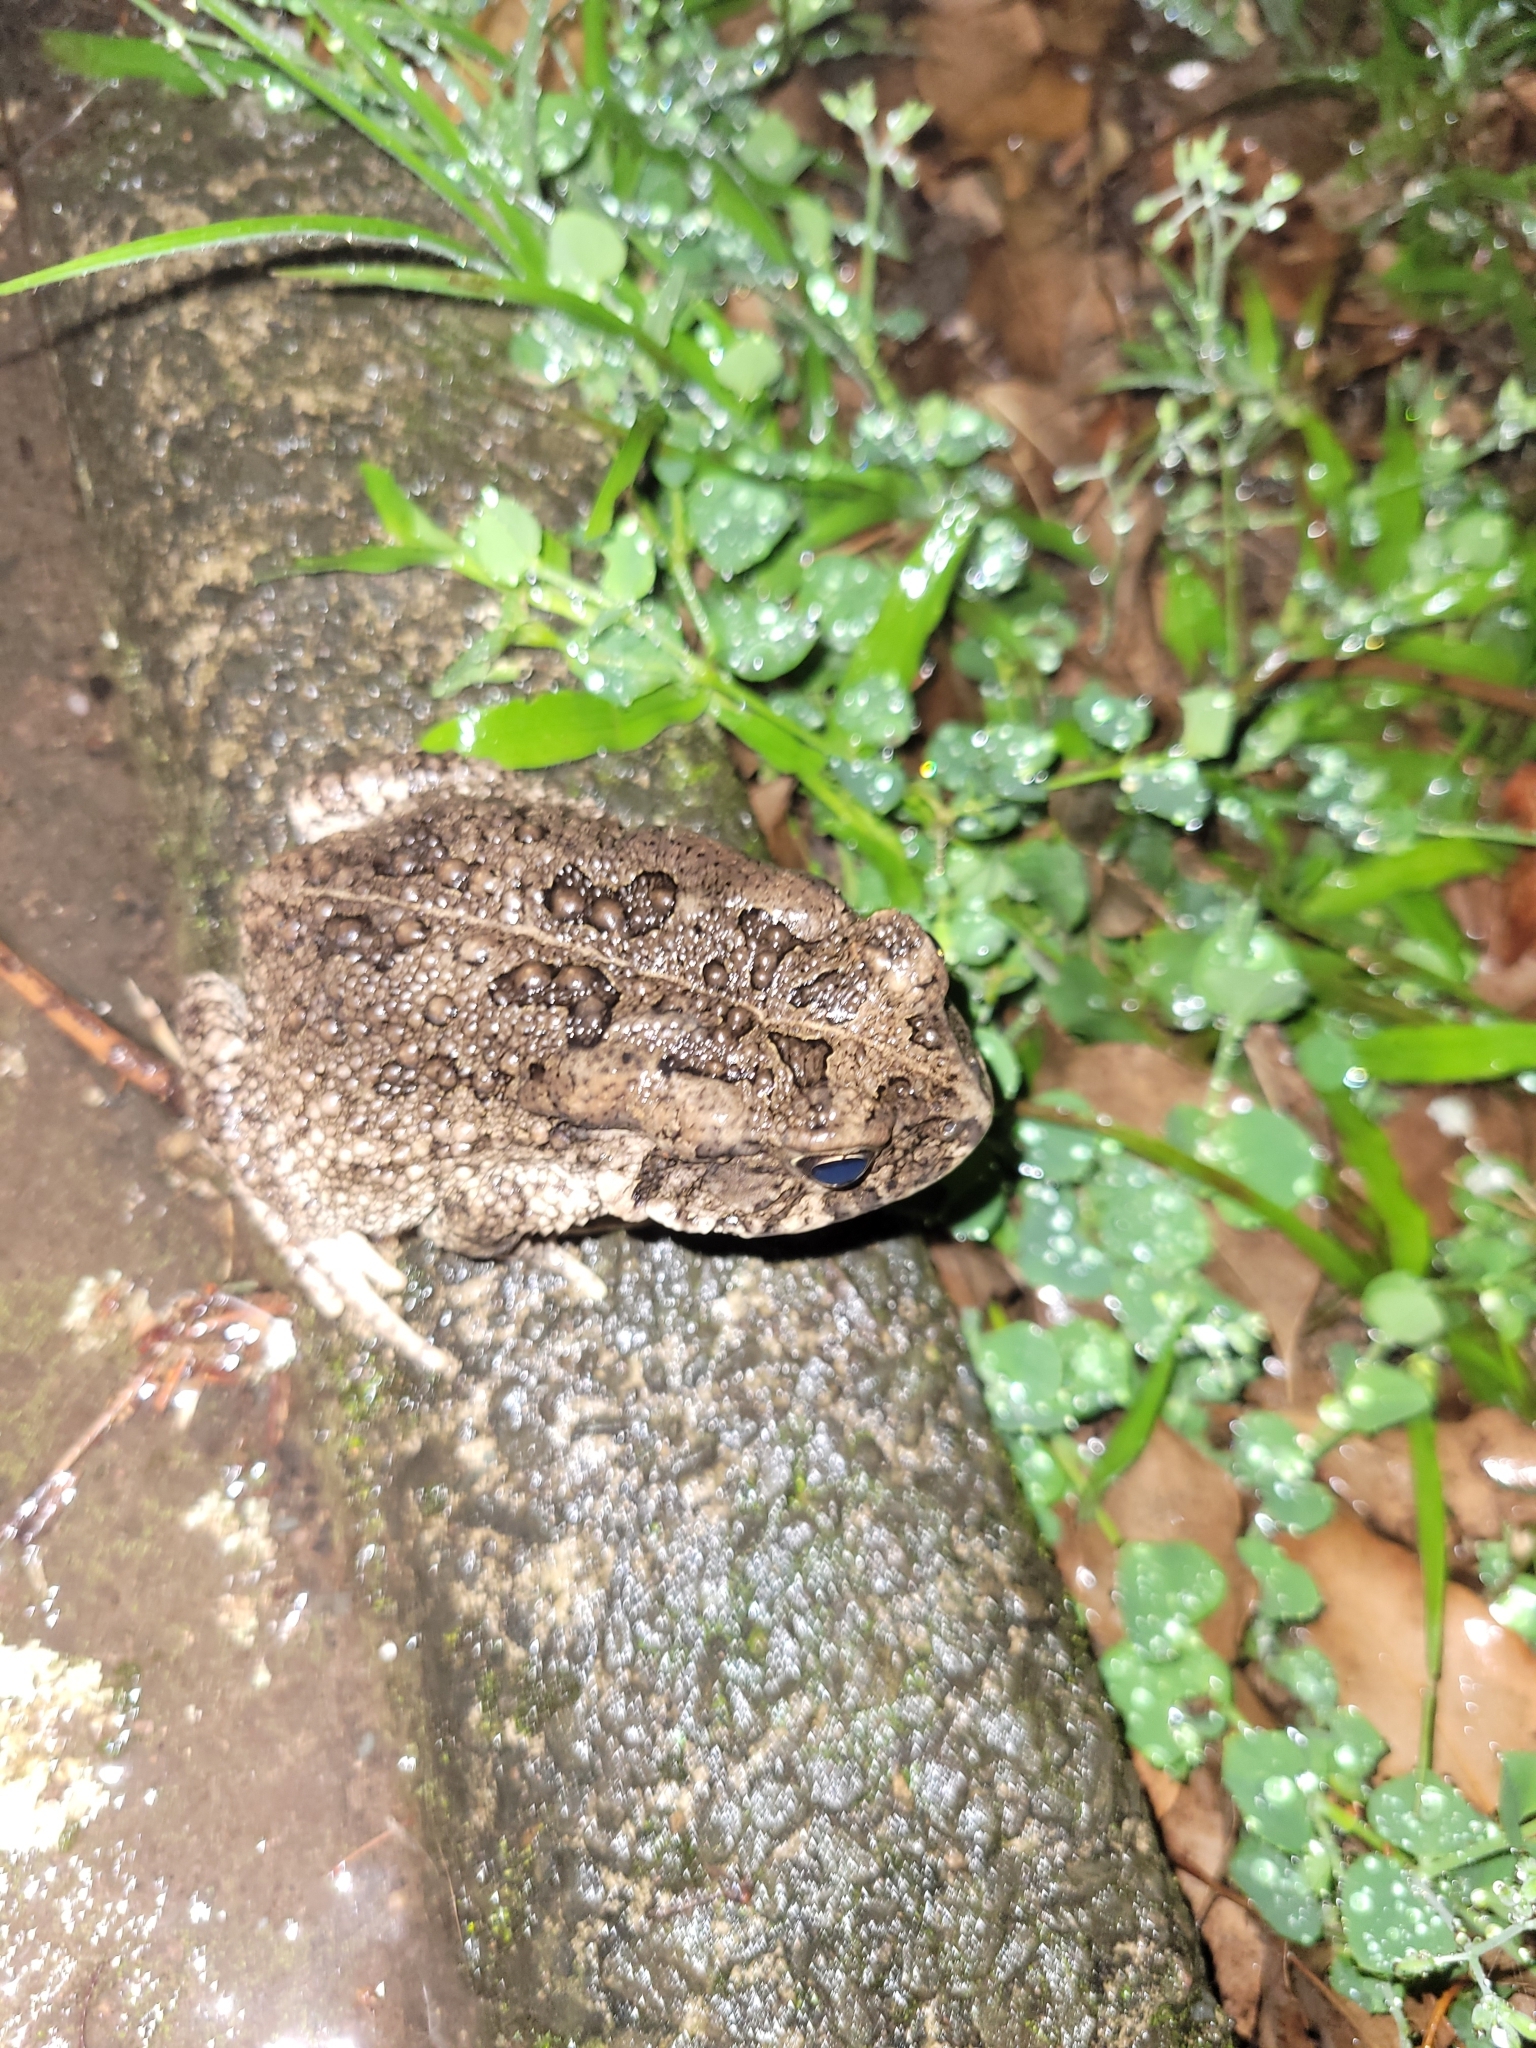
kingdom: Animalia
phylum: Chordata
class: Amphibia
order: Anura
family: Bufonidae
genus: Sclerophrys
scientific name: Sclerophrys gutturalis
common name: African common toad
